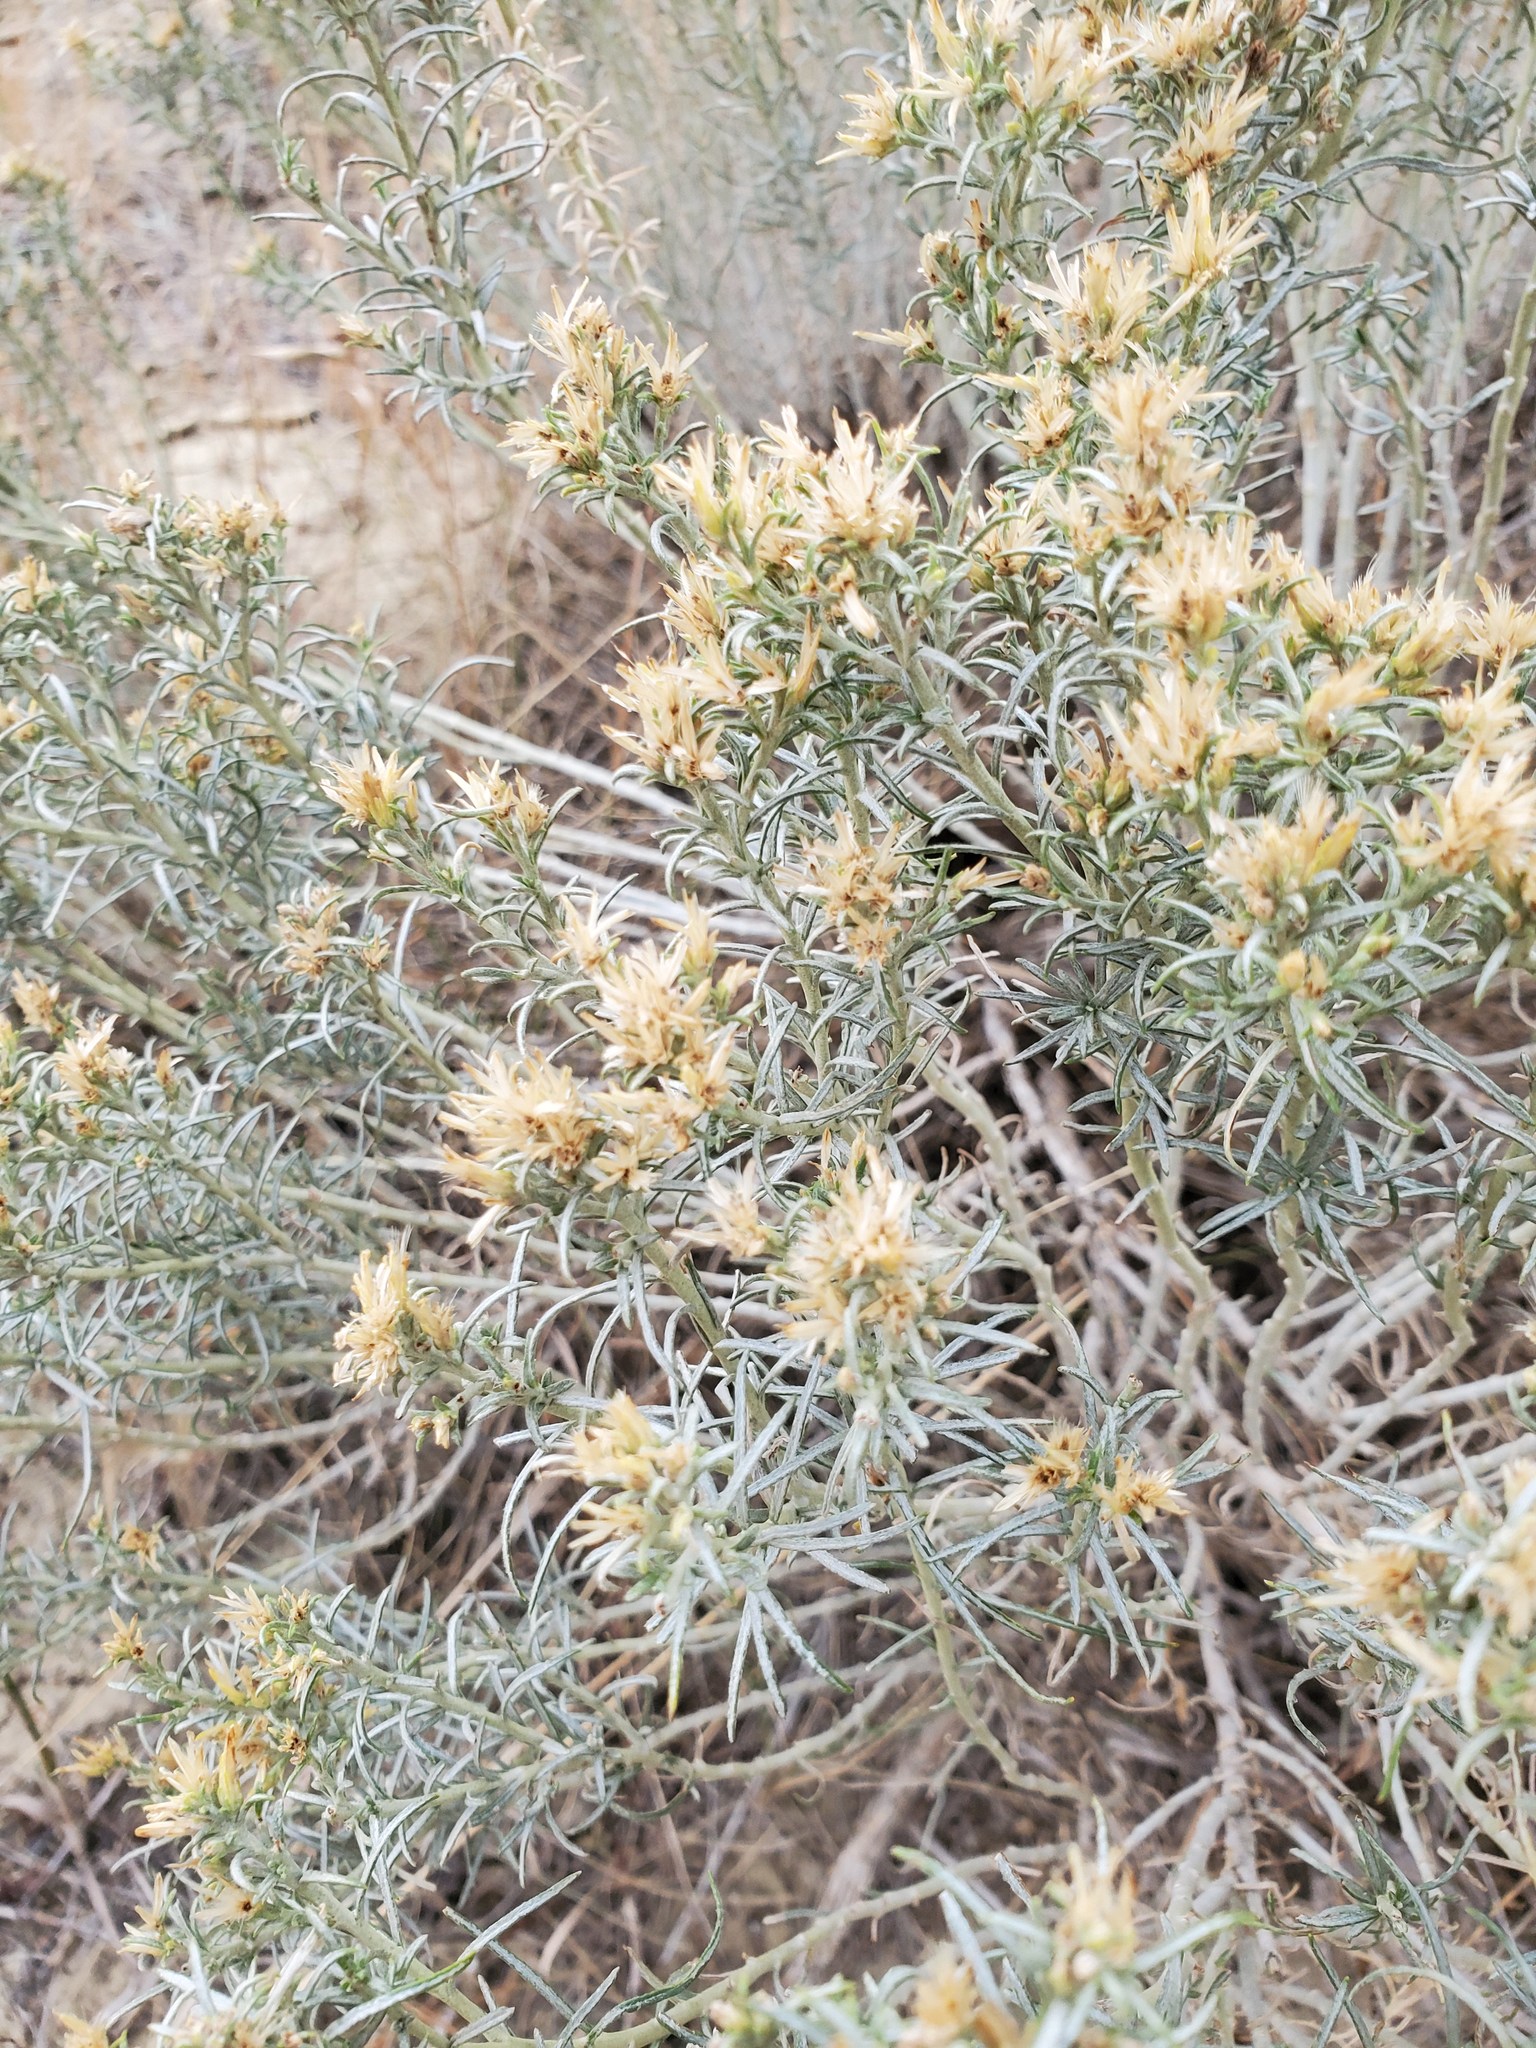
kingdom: Plantae
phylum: Tracheophyta
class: Magnoliopsida
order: Asterales
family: Asteraceae
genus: Ericameria
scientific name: Ericameria nauseosa
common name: Rubber rabbitbrush
